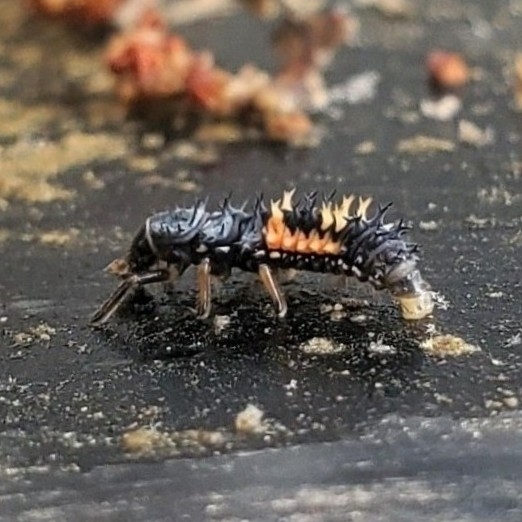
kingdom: Animalia
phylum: Arthropoda
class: Insecta
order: Coleoptera
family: Coccinellidae
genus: Harmonia
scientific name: Harmonia axyridis
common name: Harlequin ladybird
